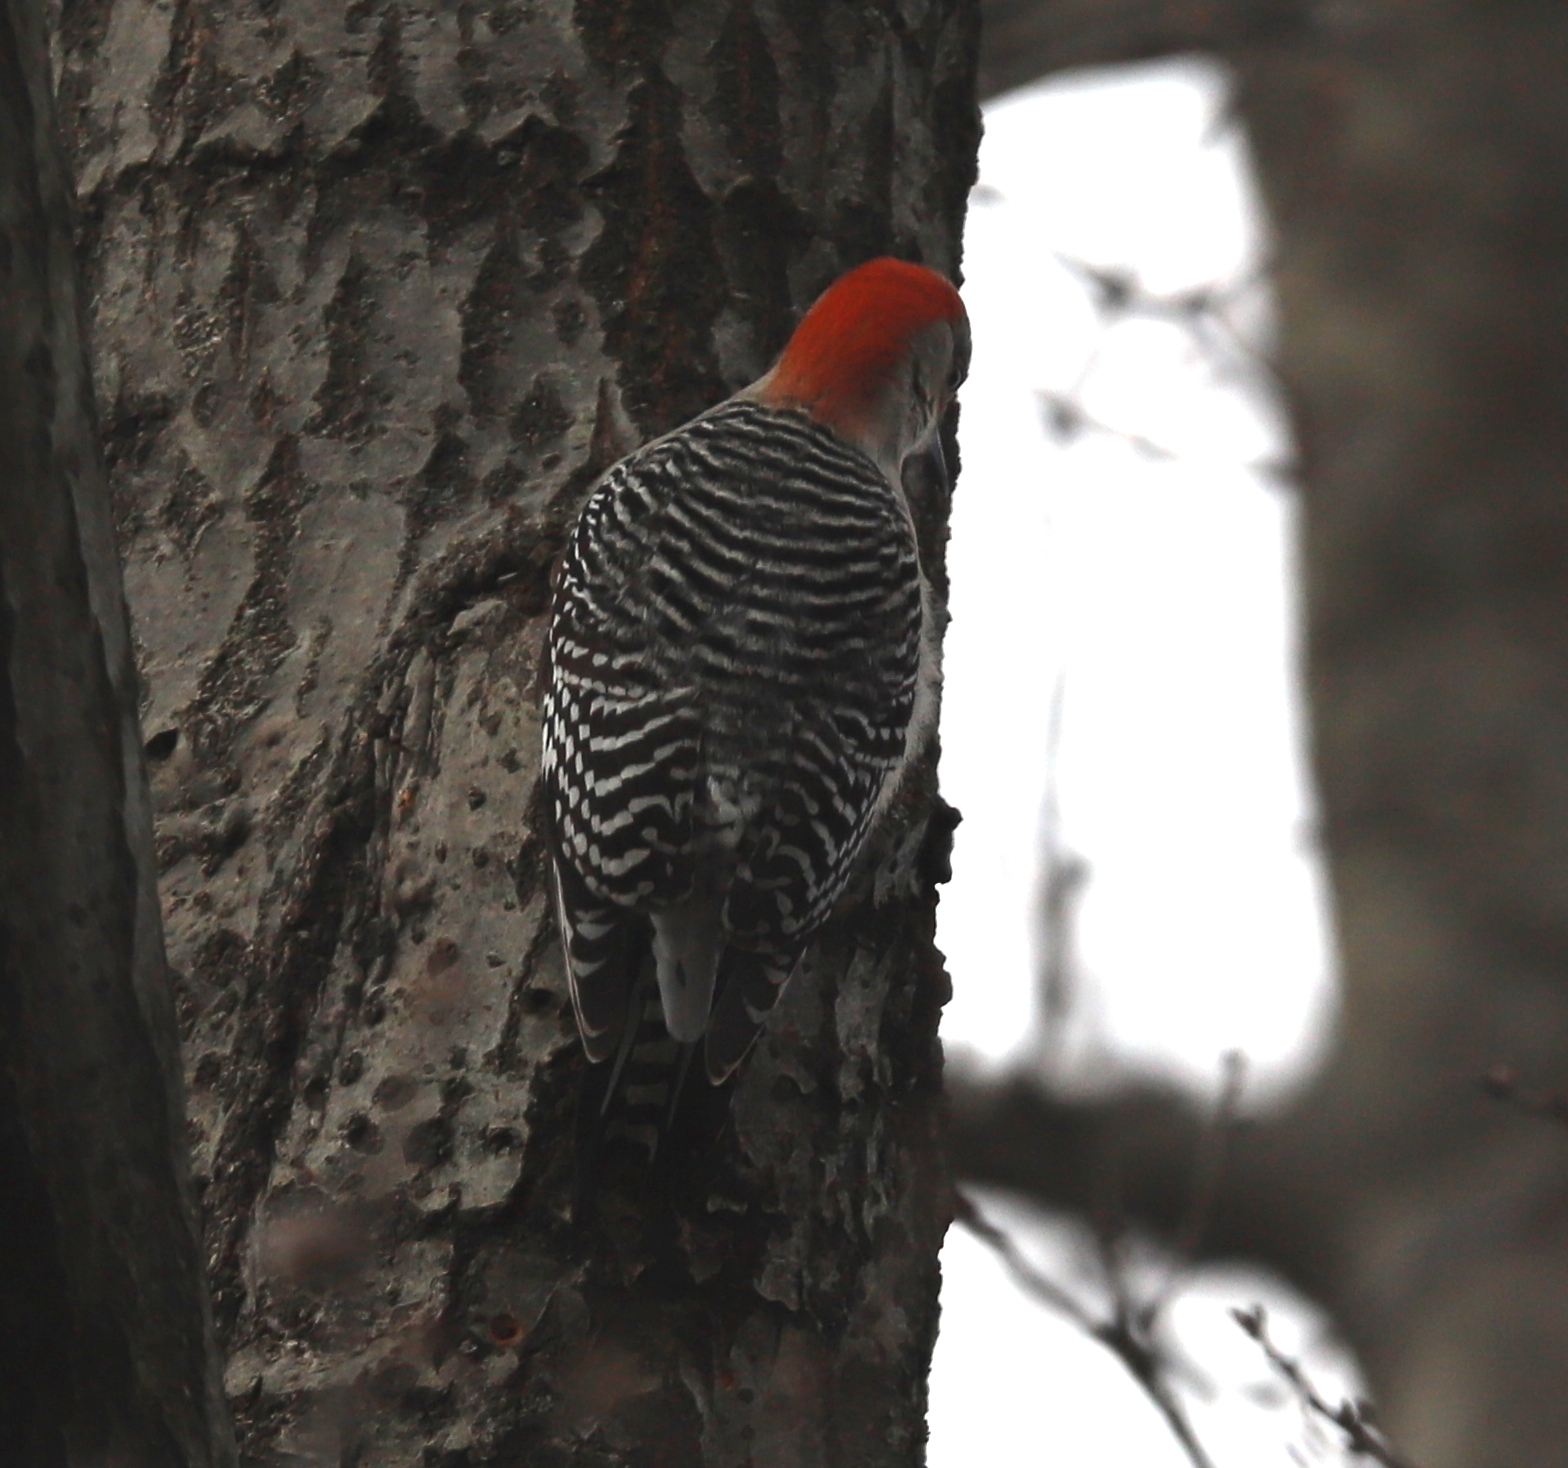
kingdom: Animalia
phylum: Chordata
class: Aves
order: Piciformes
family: Picidae
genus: Melanerpes
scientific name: Melanerpes carolinus
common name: Red-bellied woodpecker
